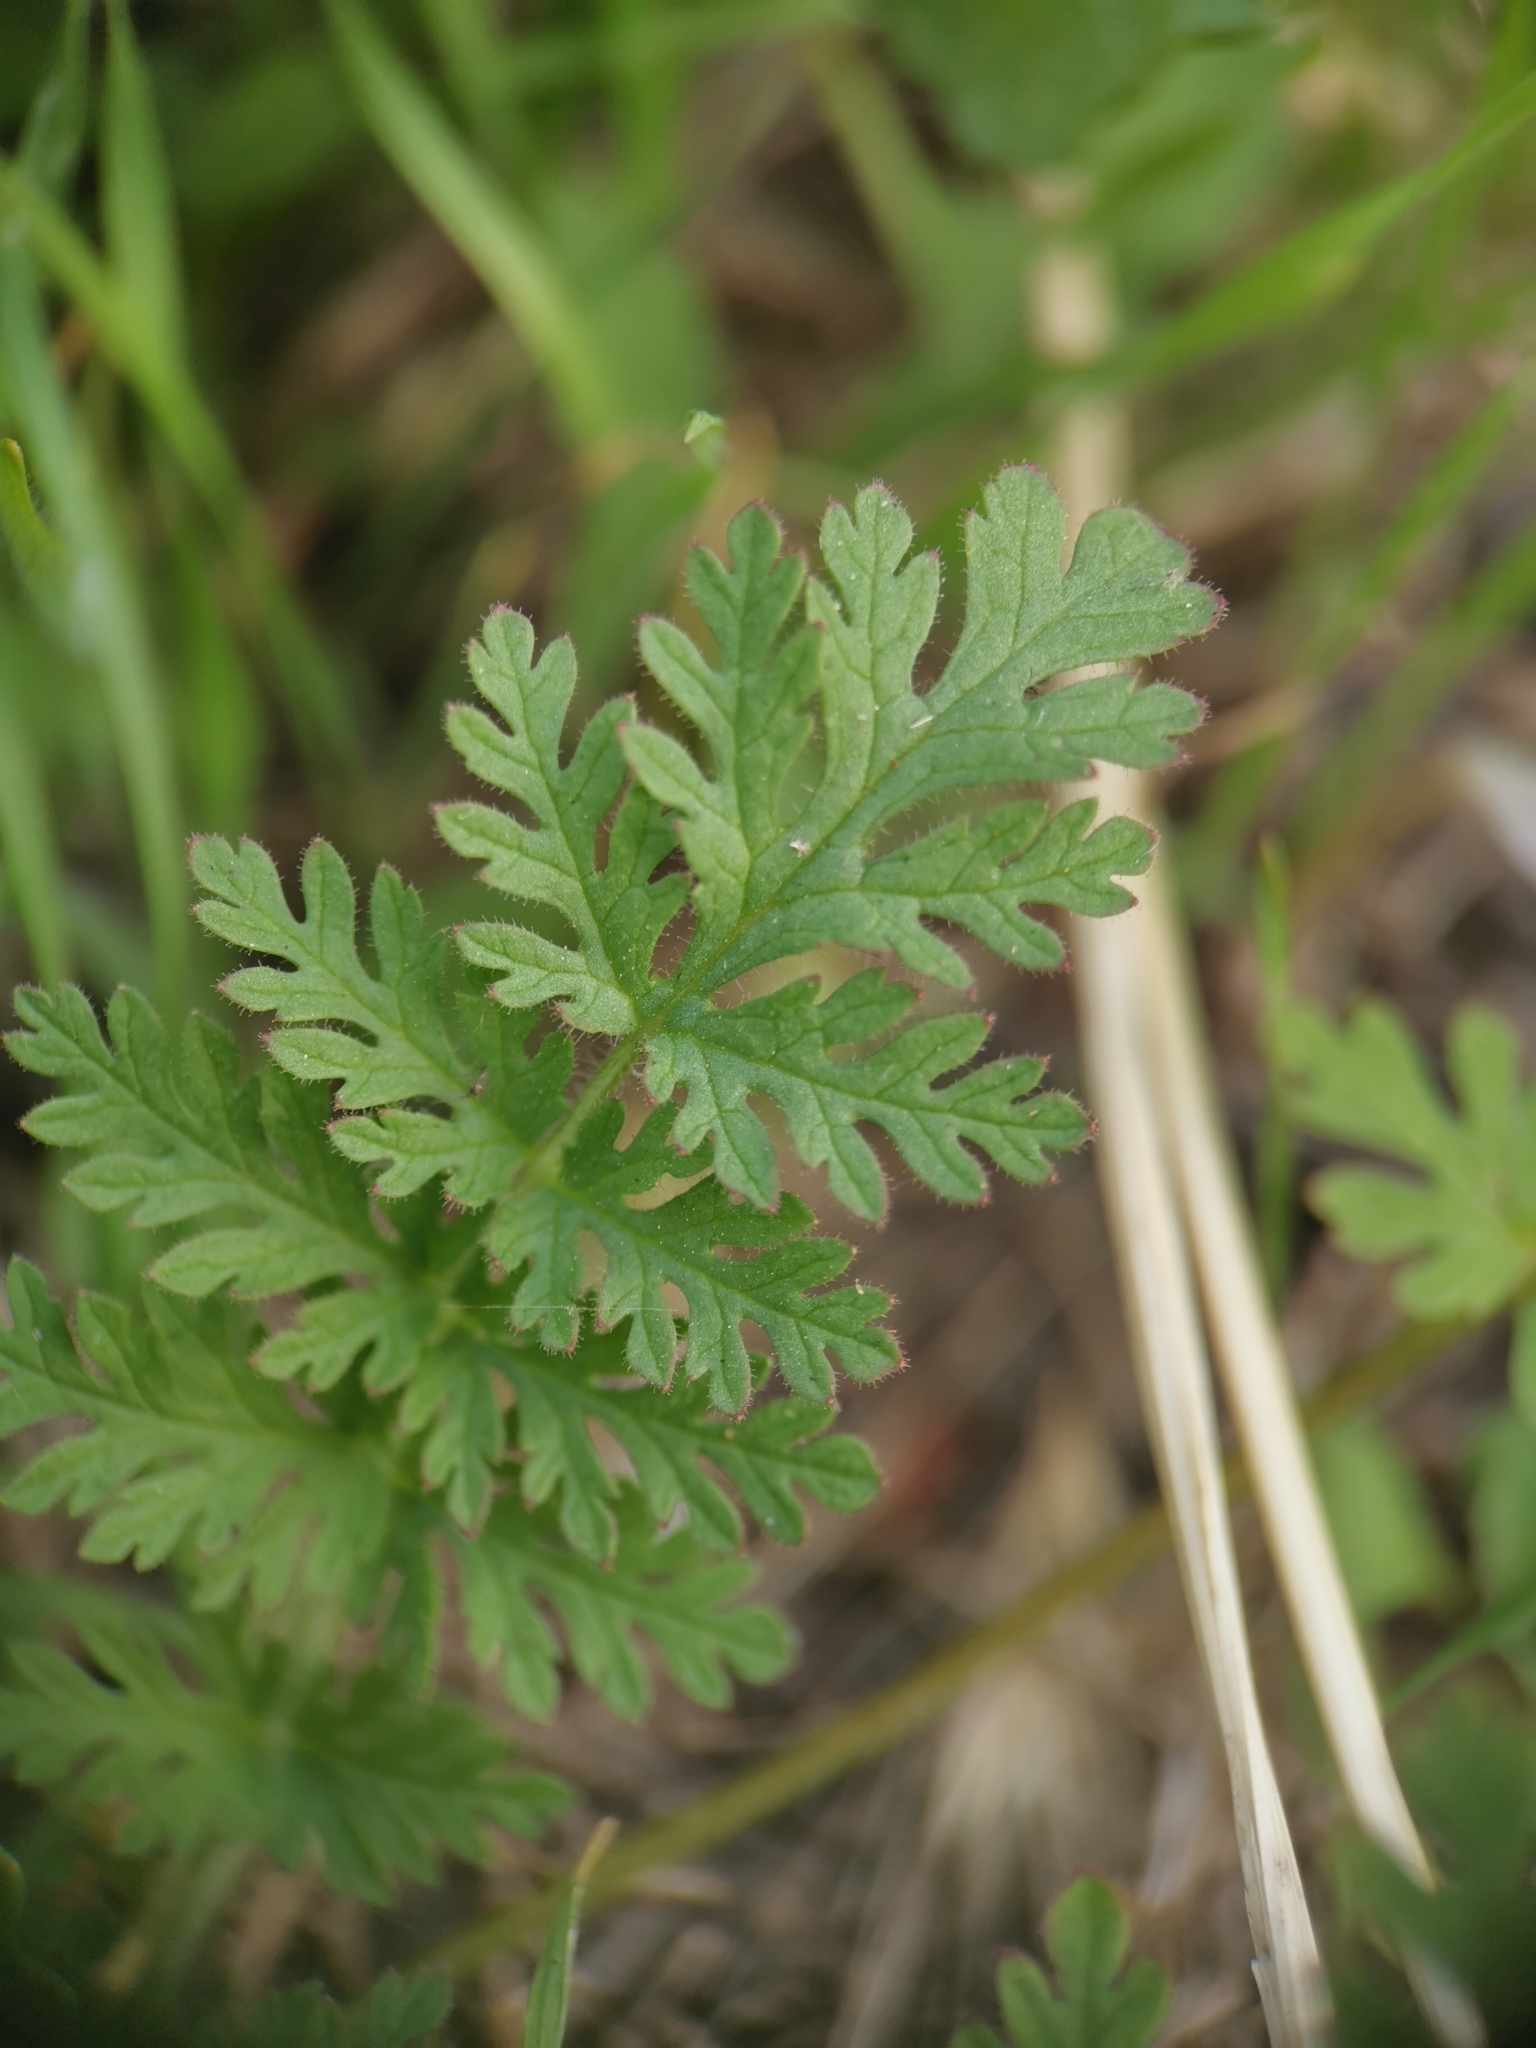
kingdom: Plantae
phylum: Tracheophyta
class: Magnoliopsida
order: Geraniales
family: Geraniaceae
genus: Erodium
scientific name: Erodium cicutarium
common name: Common stork's-bill
